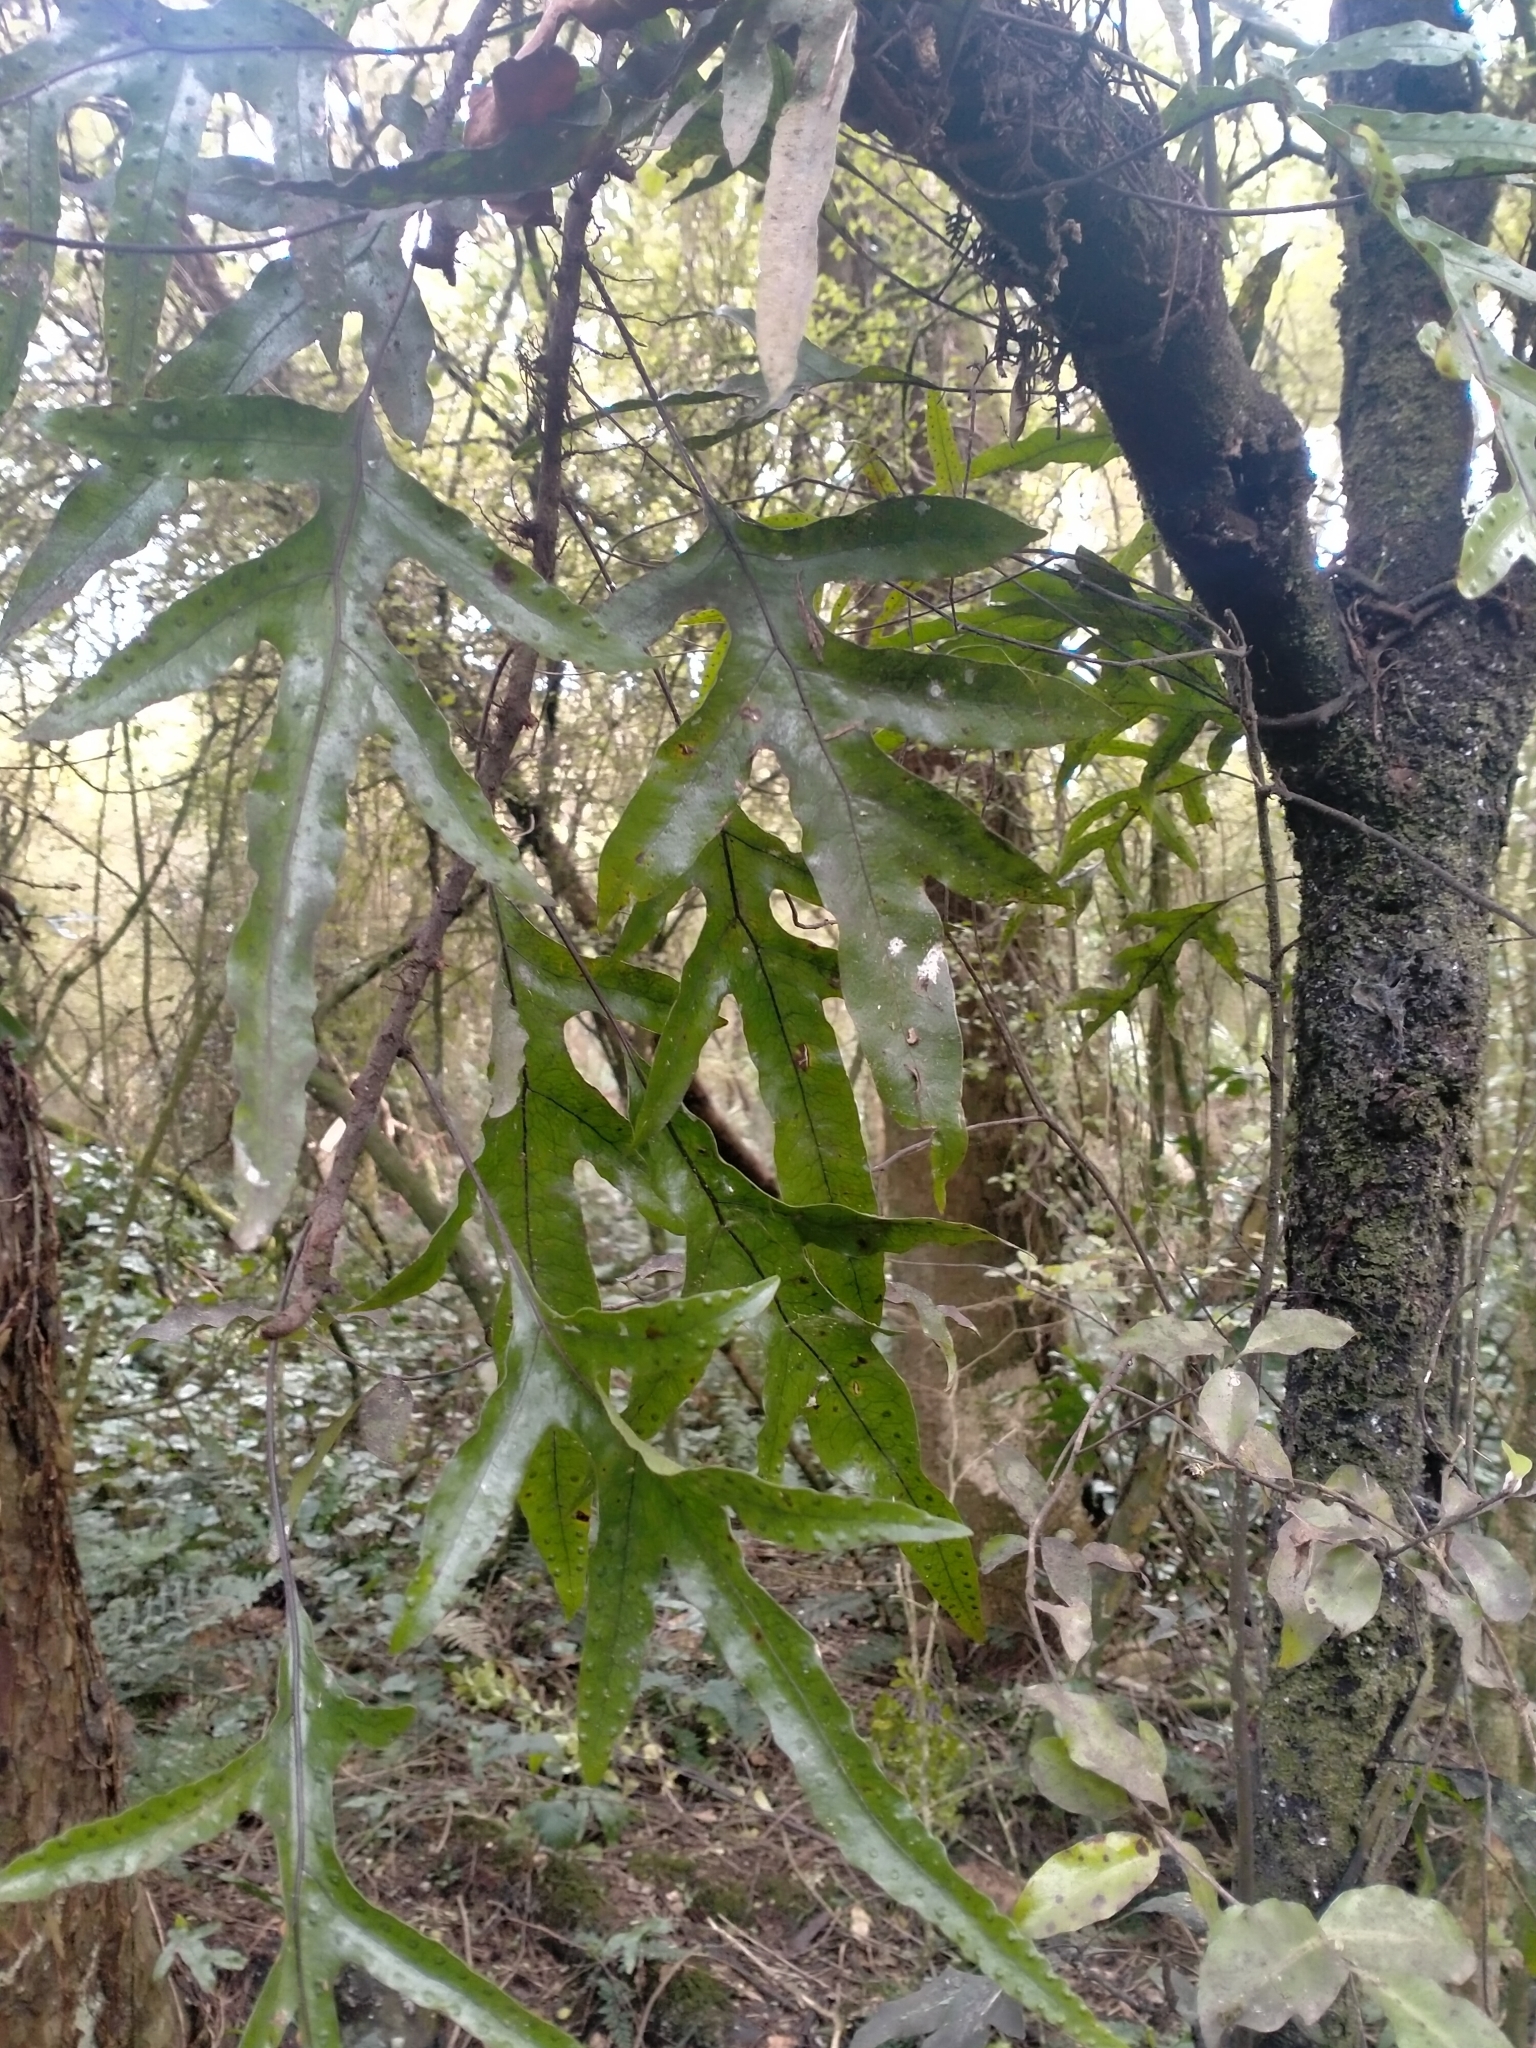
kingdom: Plantae
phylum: Tracheophyta
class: Polypodiopsida
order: Polypodiales
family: Polypodiaceae
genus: Lecanopteris
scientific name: Lecanopteris pustulata
